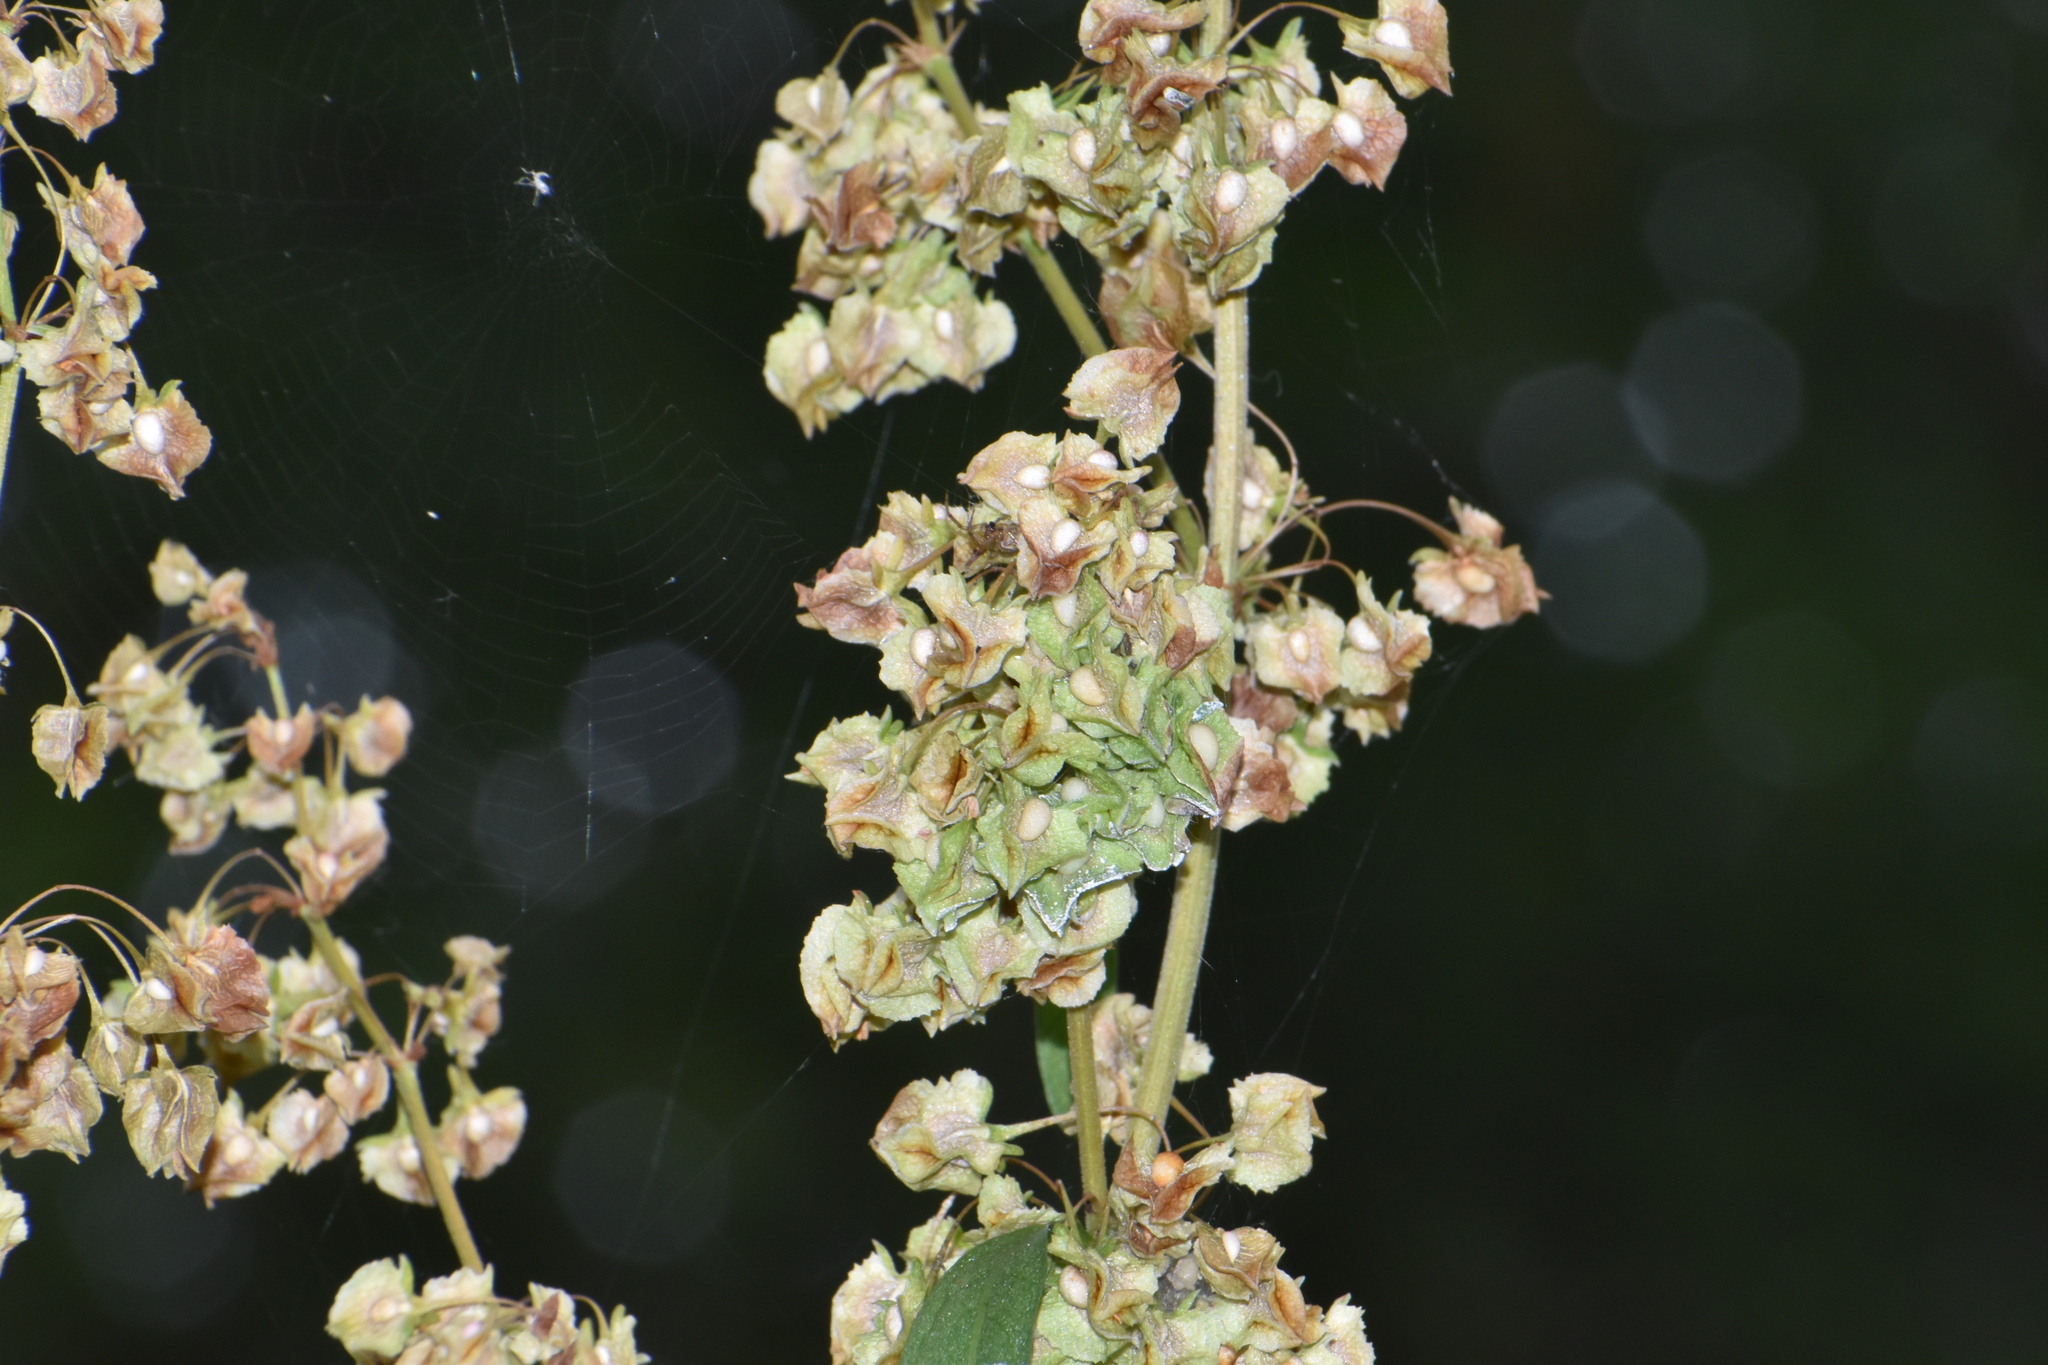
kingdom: Plantae
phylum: Tracheophyta
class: Magnoliopsida
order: Caryophyllales
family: Polygonaceae
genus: Rumex
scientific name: Rumex cristatus
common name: Greek dock
